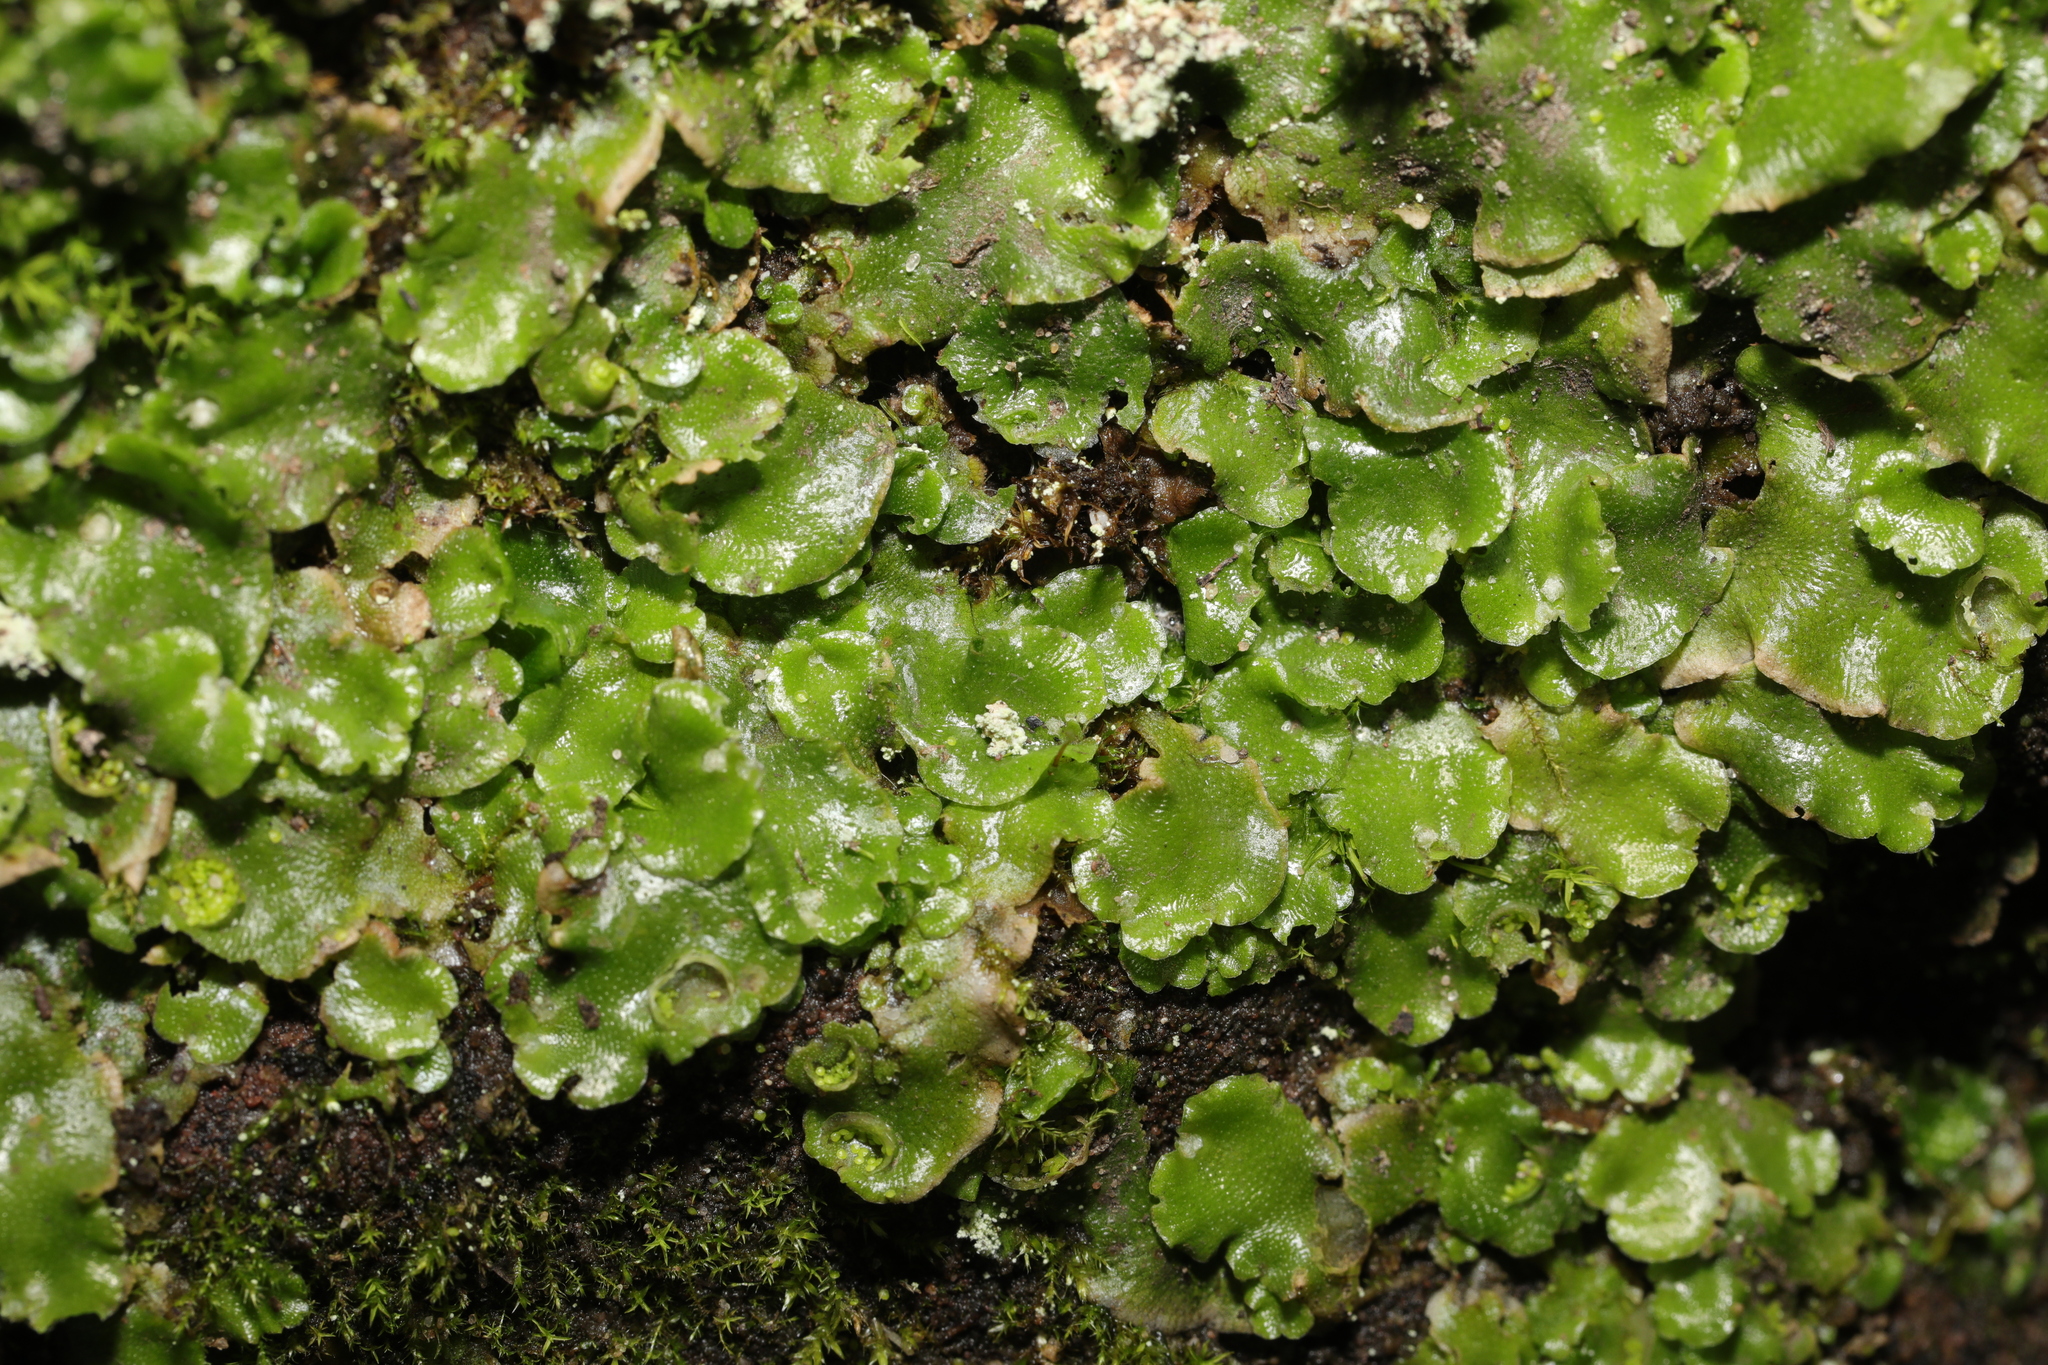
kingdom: Plantae
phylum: Marchantiophyta
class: Marchantiopsida
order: Lunulariales
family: Lunulariaceae
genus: Lunularia
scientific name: Lunularia cruciata
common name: Crescent-cup liverwort
